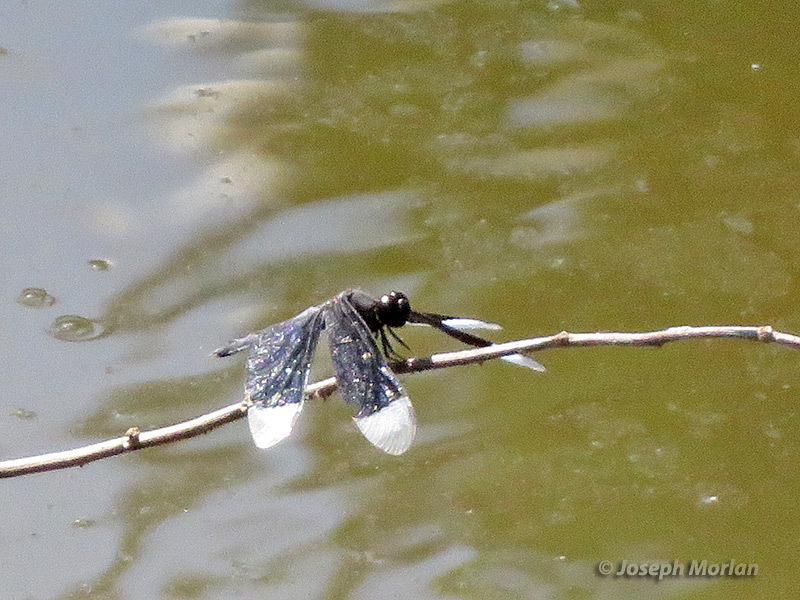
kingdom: Animalia
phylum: Arthropoda
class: Insecta
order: Odonata
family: Libellulidae
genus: Neurothemis
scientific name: Neurothemis decora
